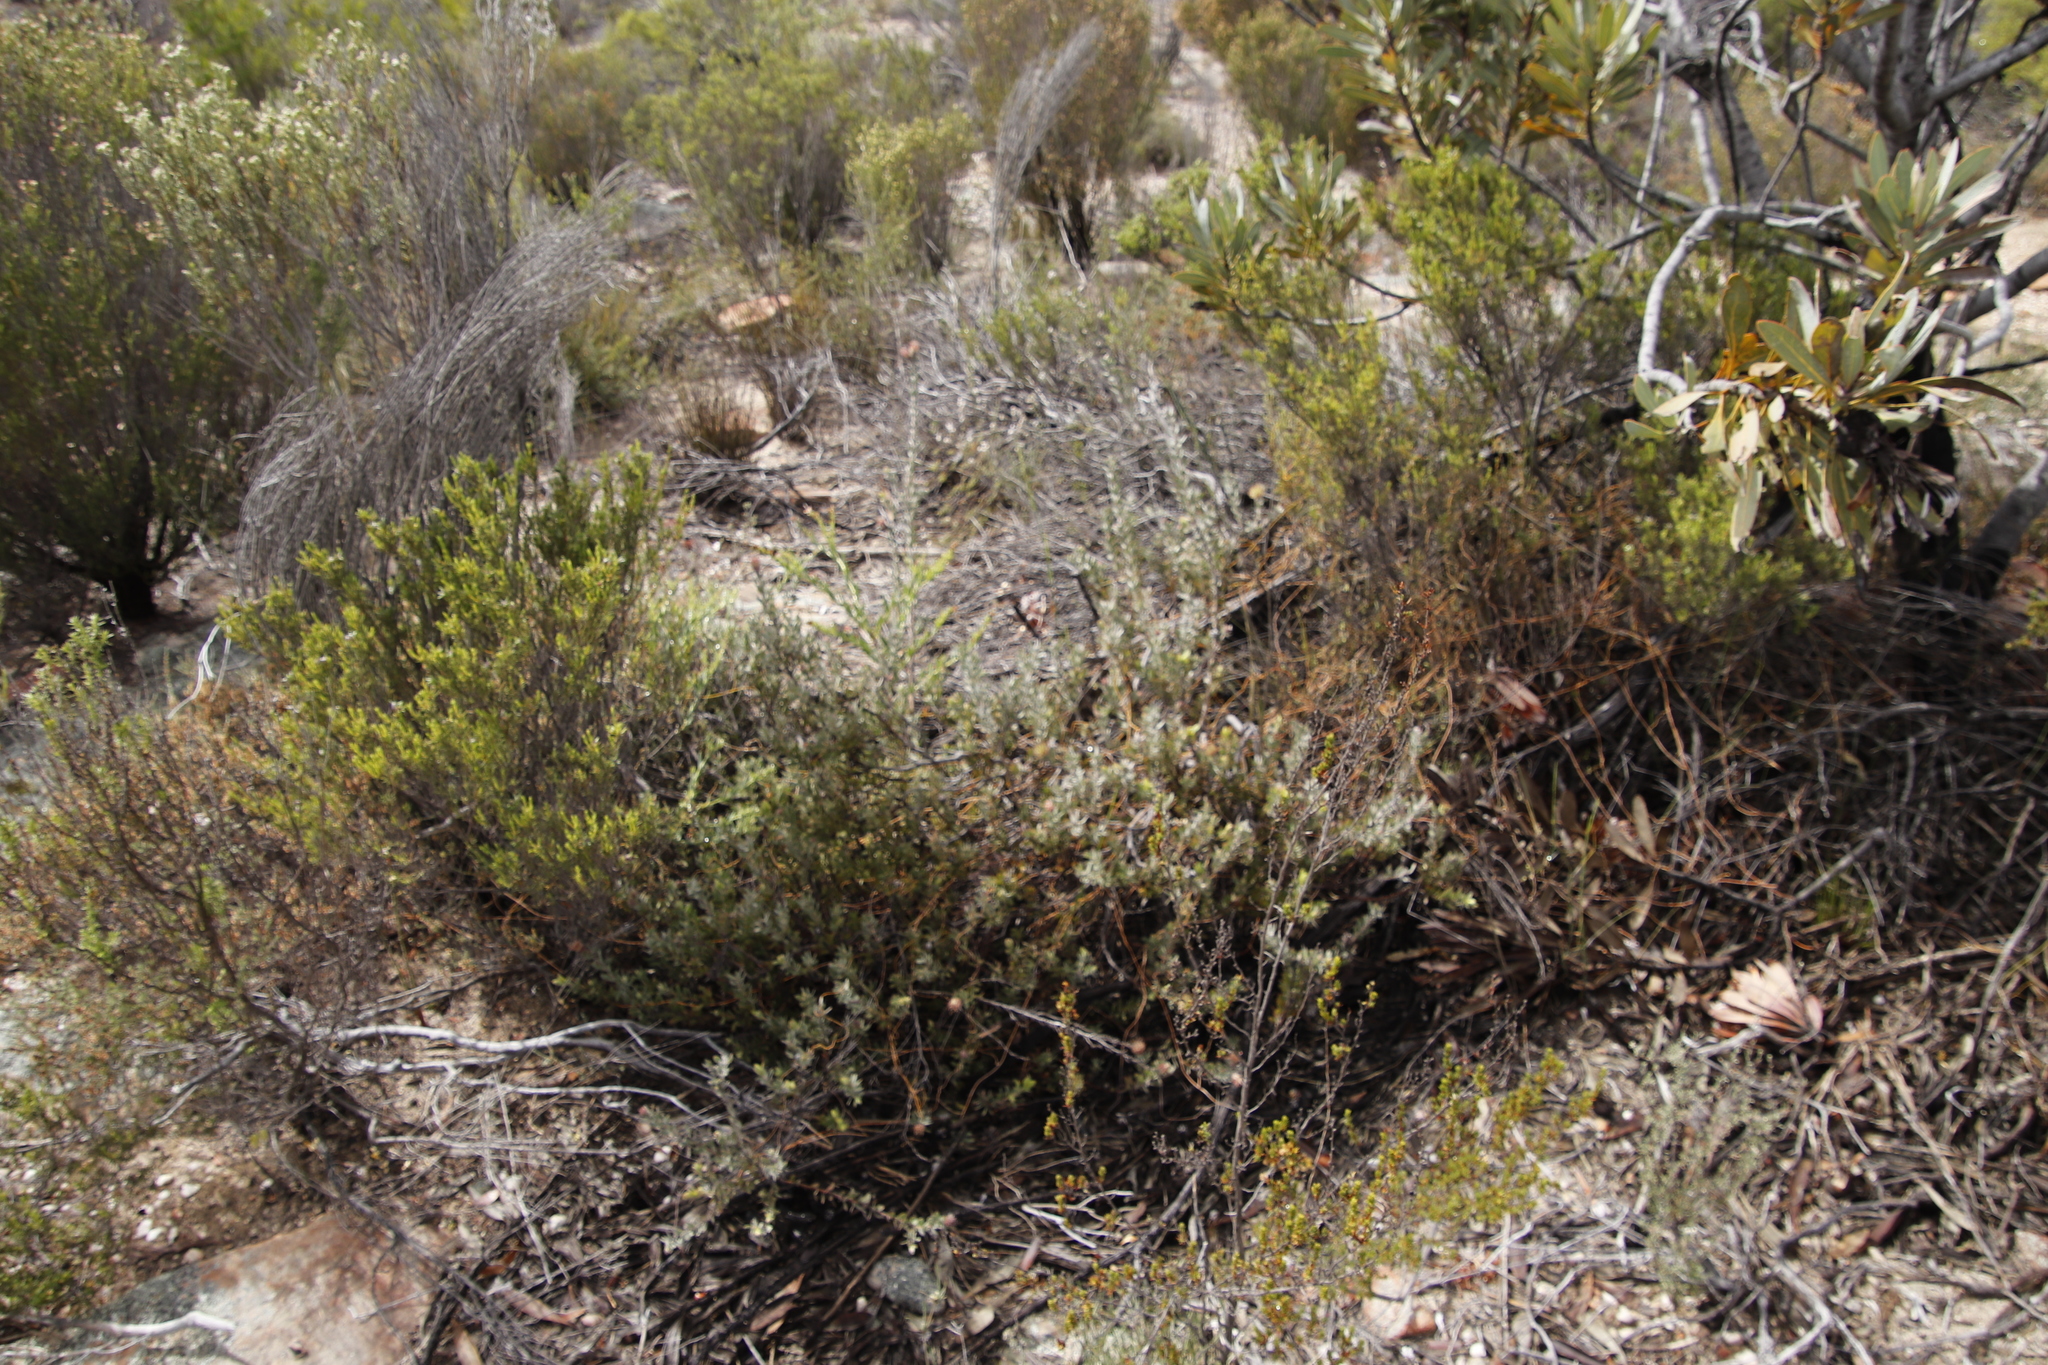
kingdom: Plantae
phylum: Tracheophyta
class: Magnoliopsida
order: Proteales
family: Proteaceae
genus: Leucospermum
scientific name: Leucospermum calligerum
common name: Arid pincushion
